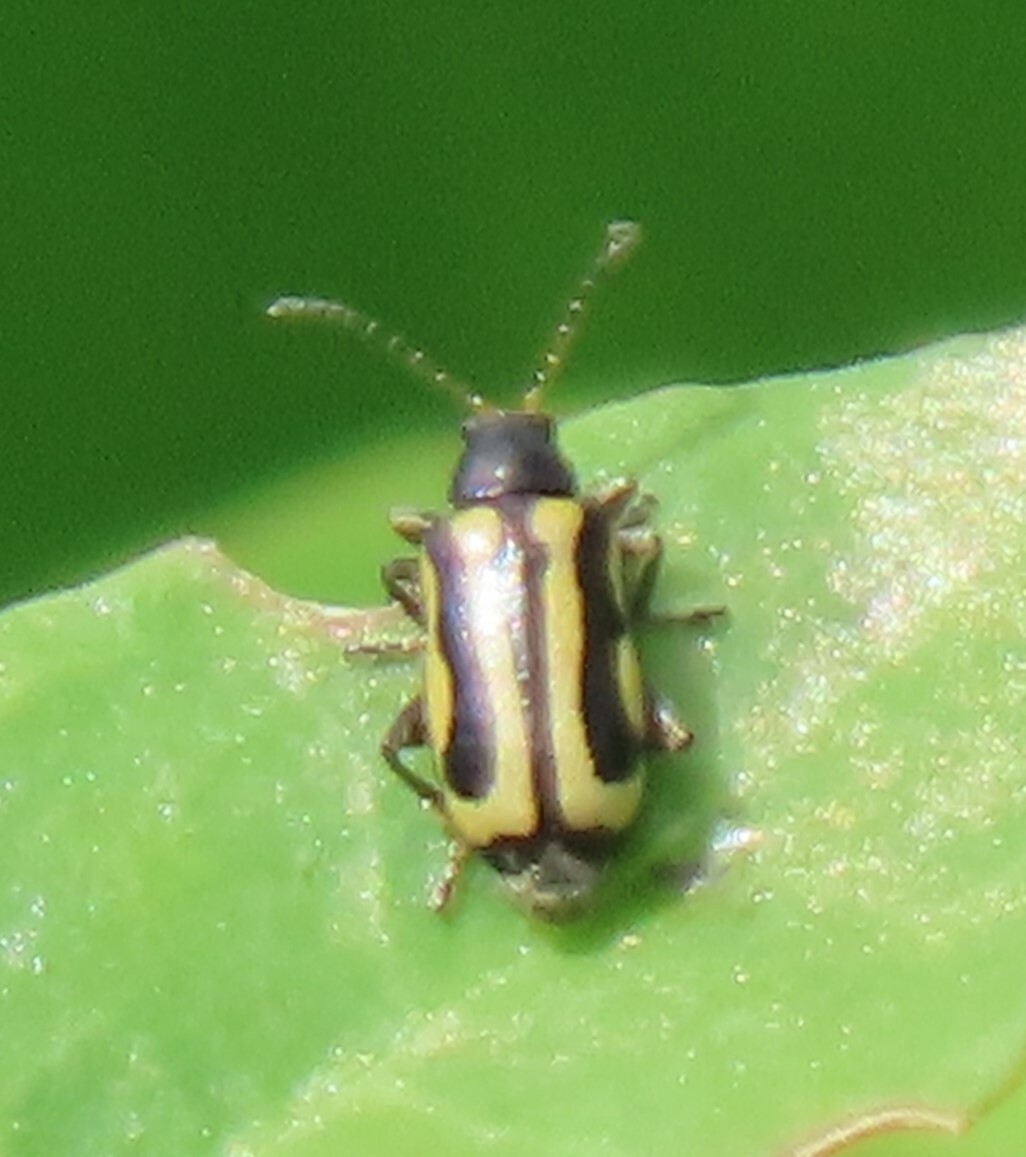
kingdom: Animalia
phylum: Arthropoda
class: Insecta
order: Coleoptera
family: Chrysomelidae
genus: Agasicles
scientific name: Agasicles hygrophila
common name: Alligatorweed flea beetle
